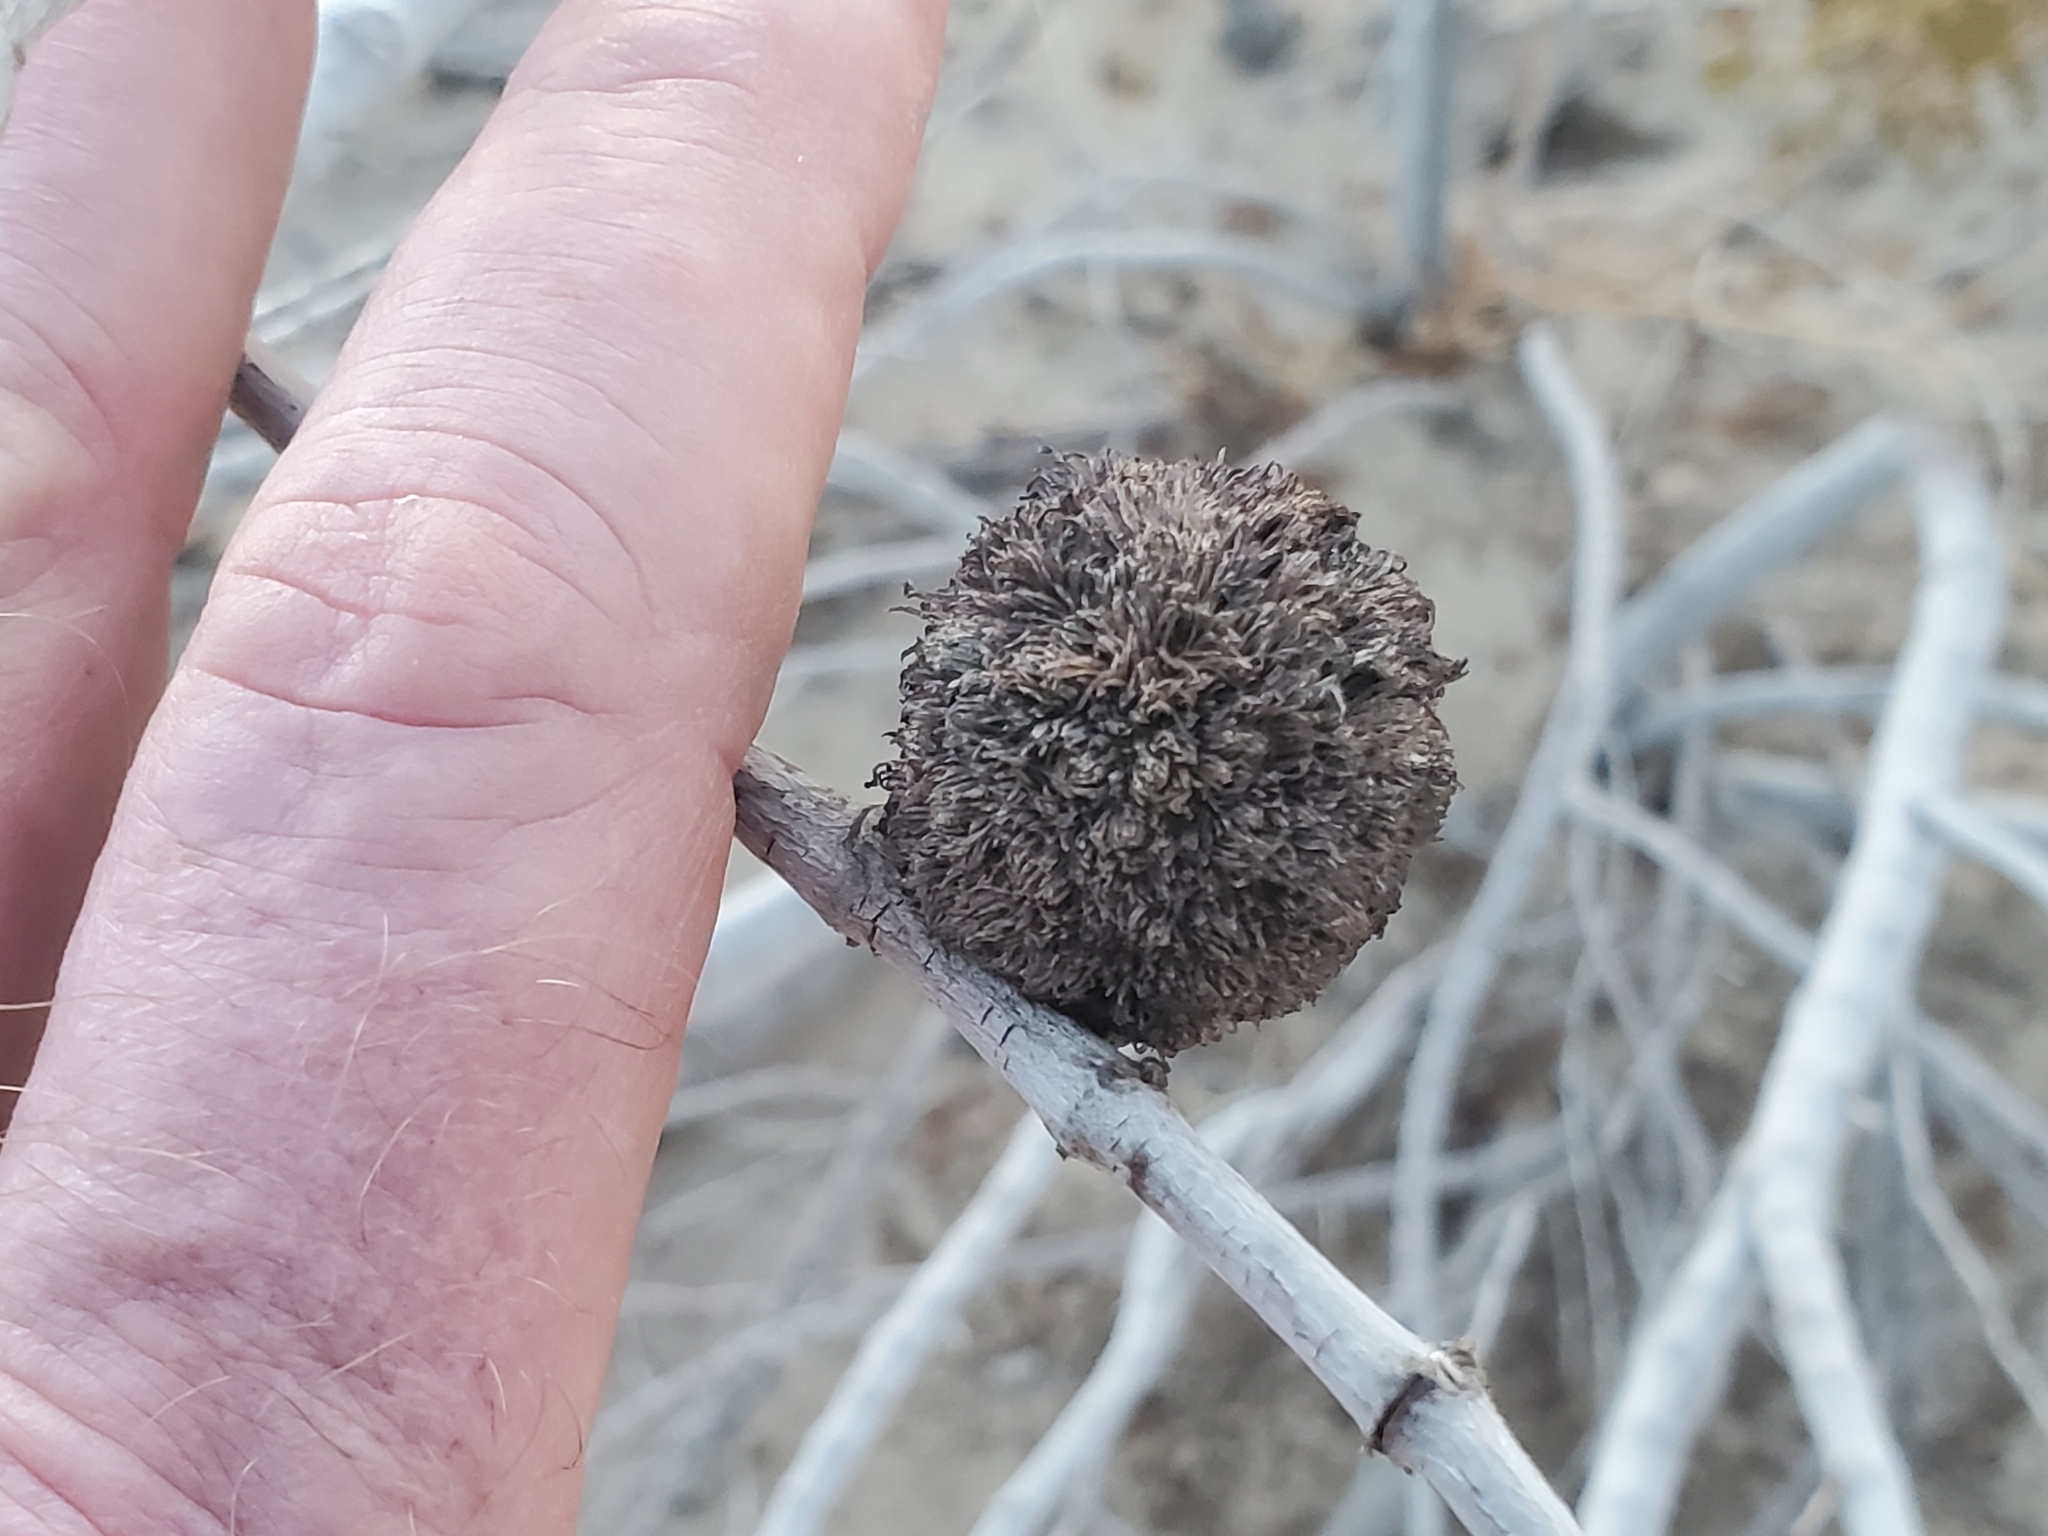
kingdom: Animalia
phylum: Arthropoda
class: Insecta
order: Diptera
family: Cecidomyiidae
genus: Asphondylia
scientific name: Asphondylia auripila
